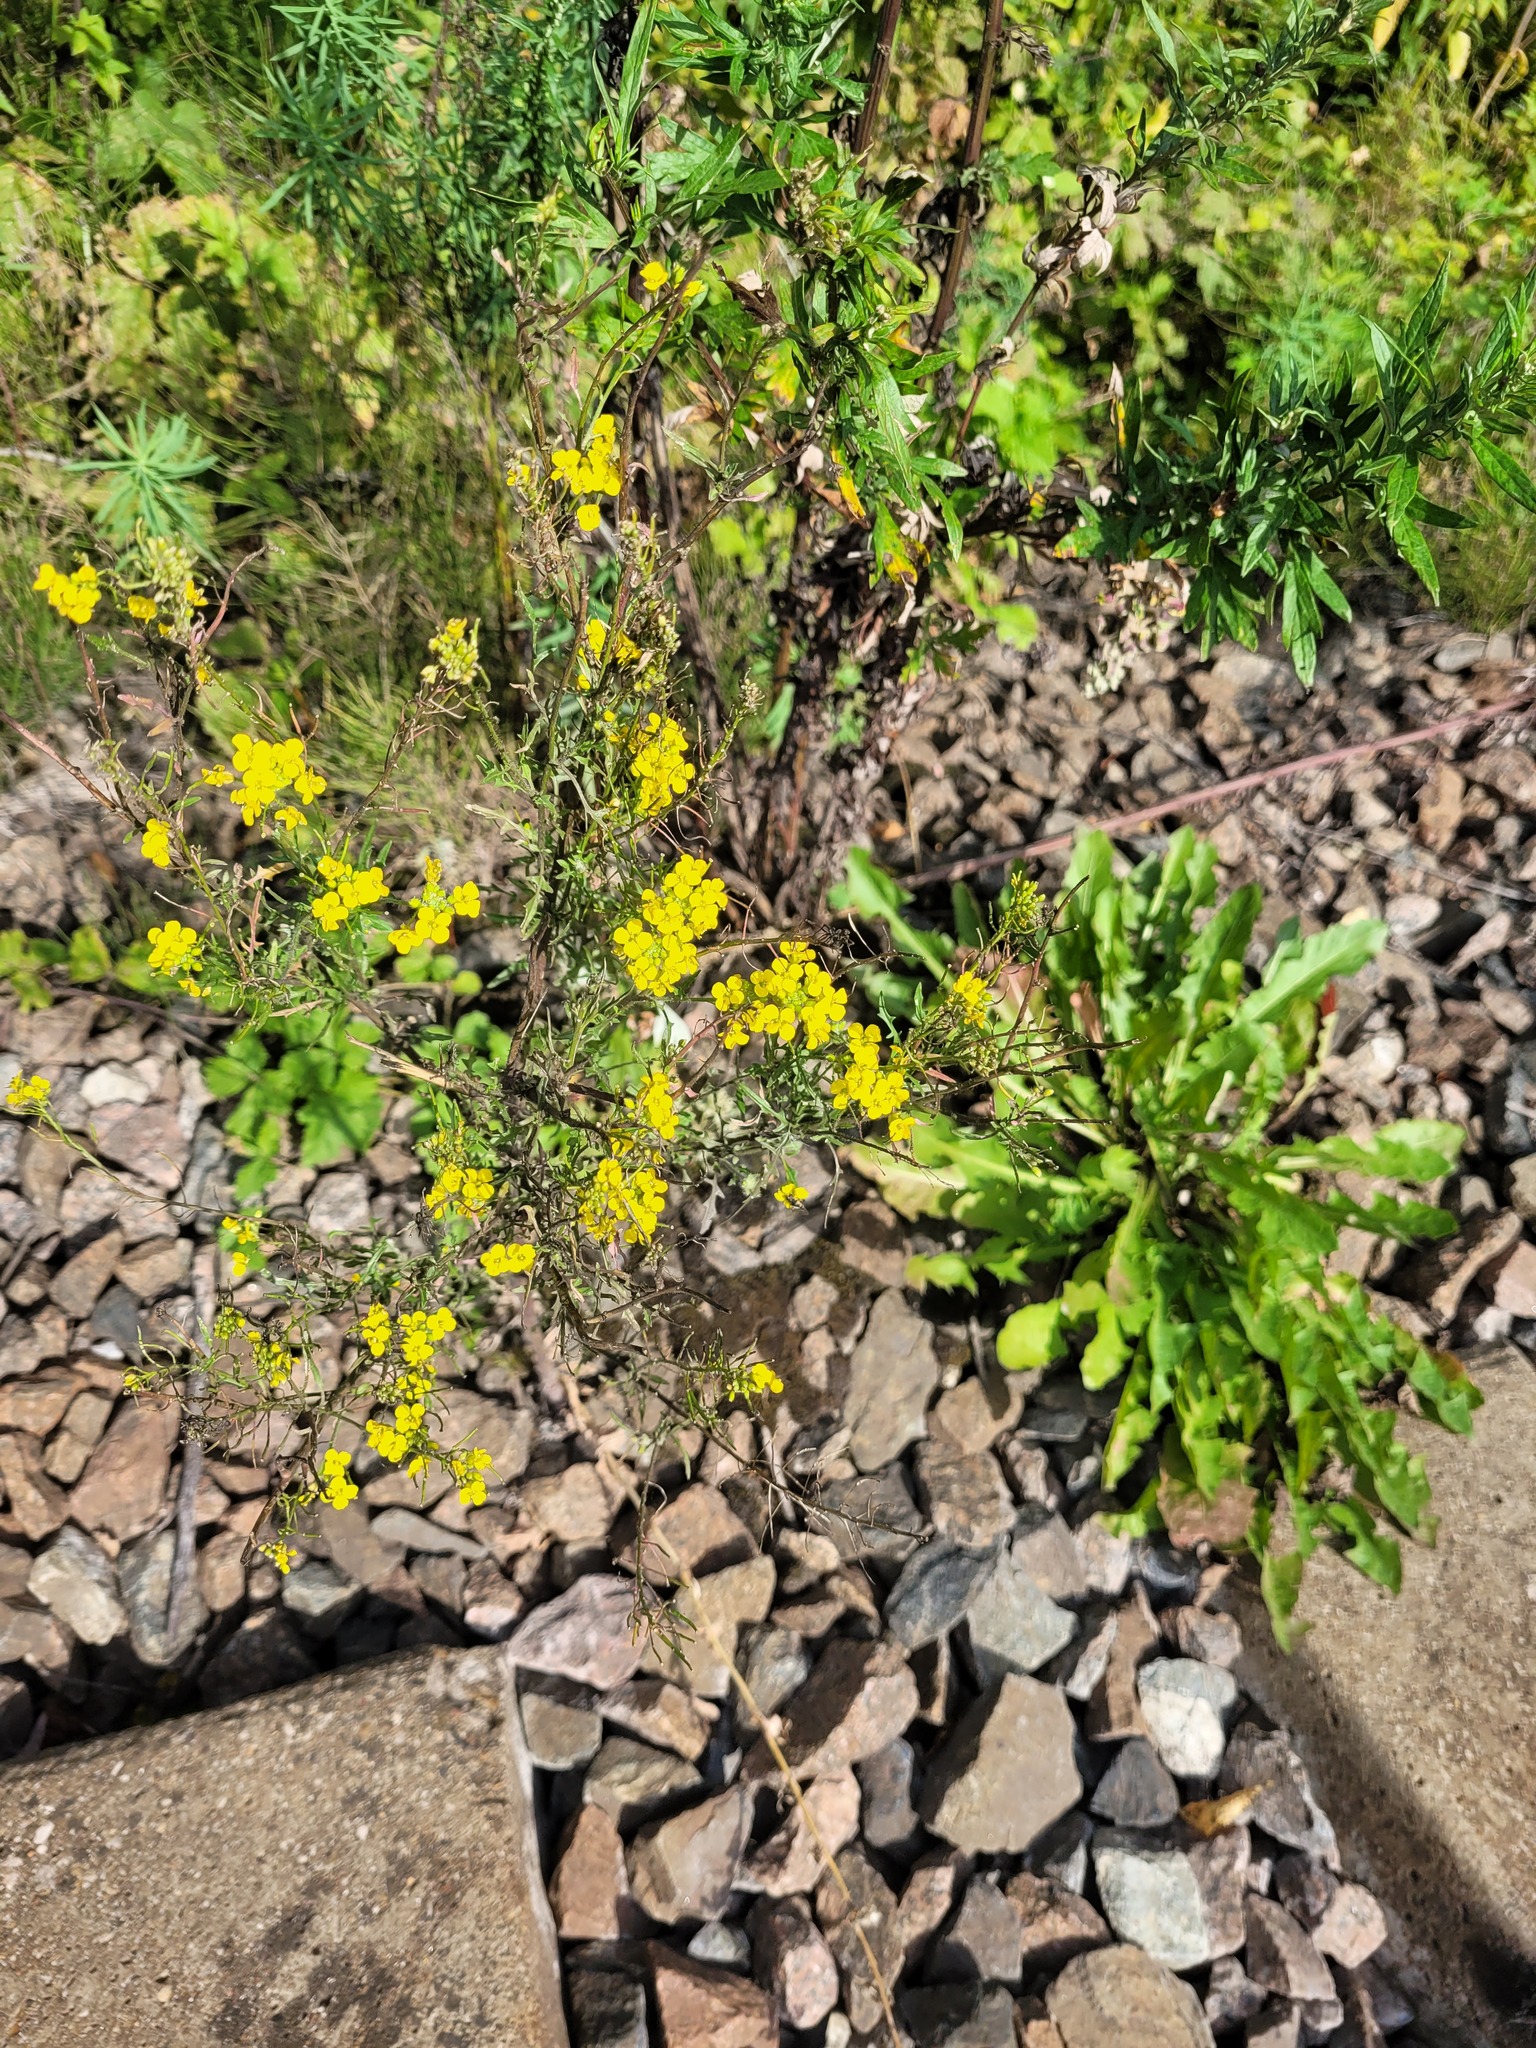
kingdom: Plantae
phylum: Tracheophyta
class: Magnoliopsida
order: Brassicales
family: Brassicaceae
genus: Sisymbrium
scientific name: Sisymbrium loeselii
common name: False london-rocket
